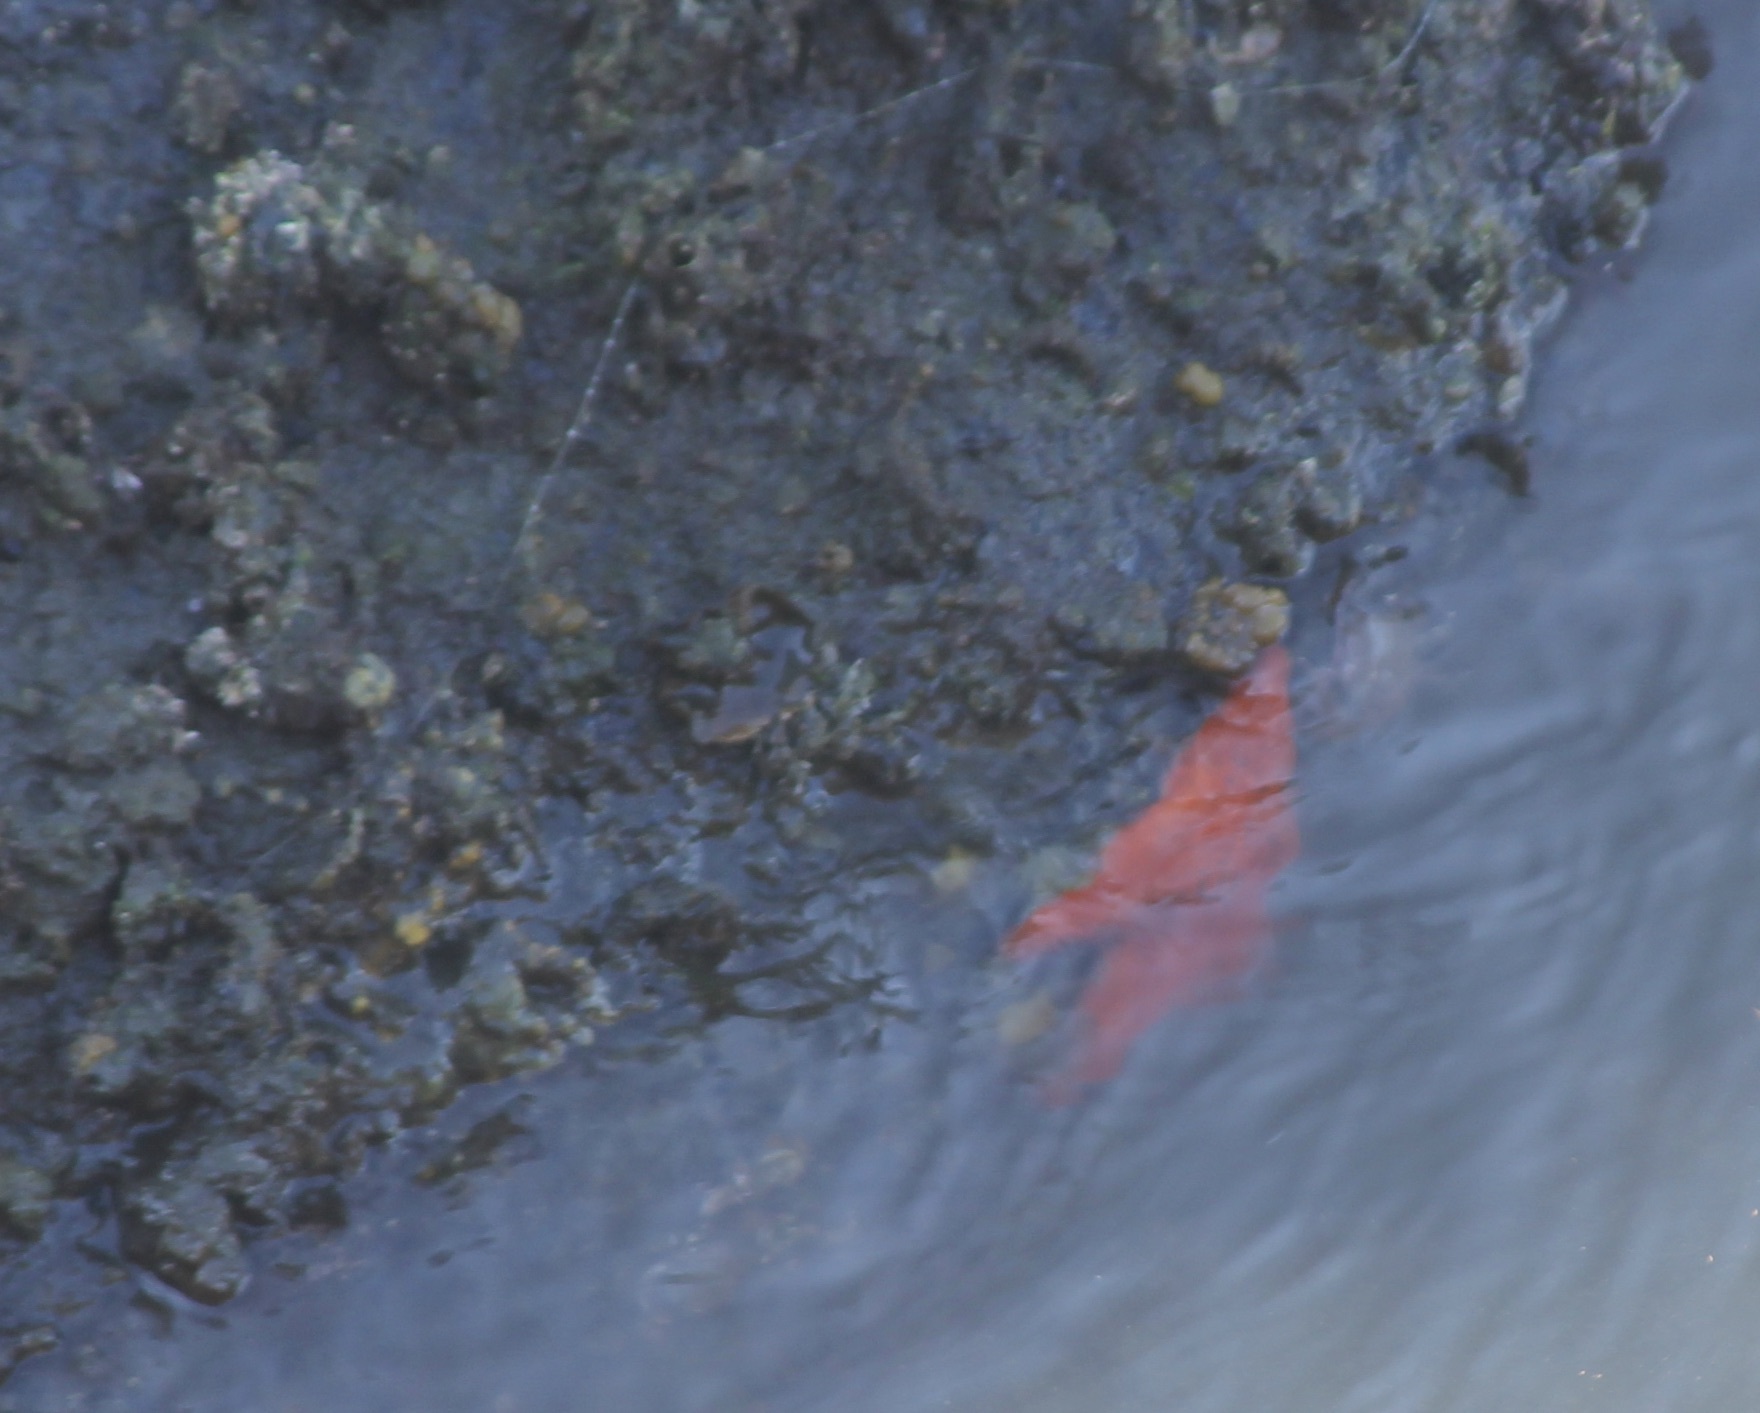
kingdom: Animalia
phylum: Echinodermata
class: Asteroidea
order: Valvatida
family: Asterinidae
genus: Patiria
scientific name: Patiria miniata
